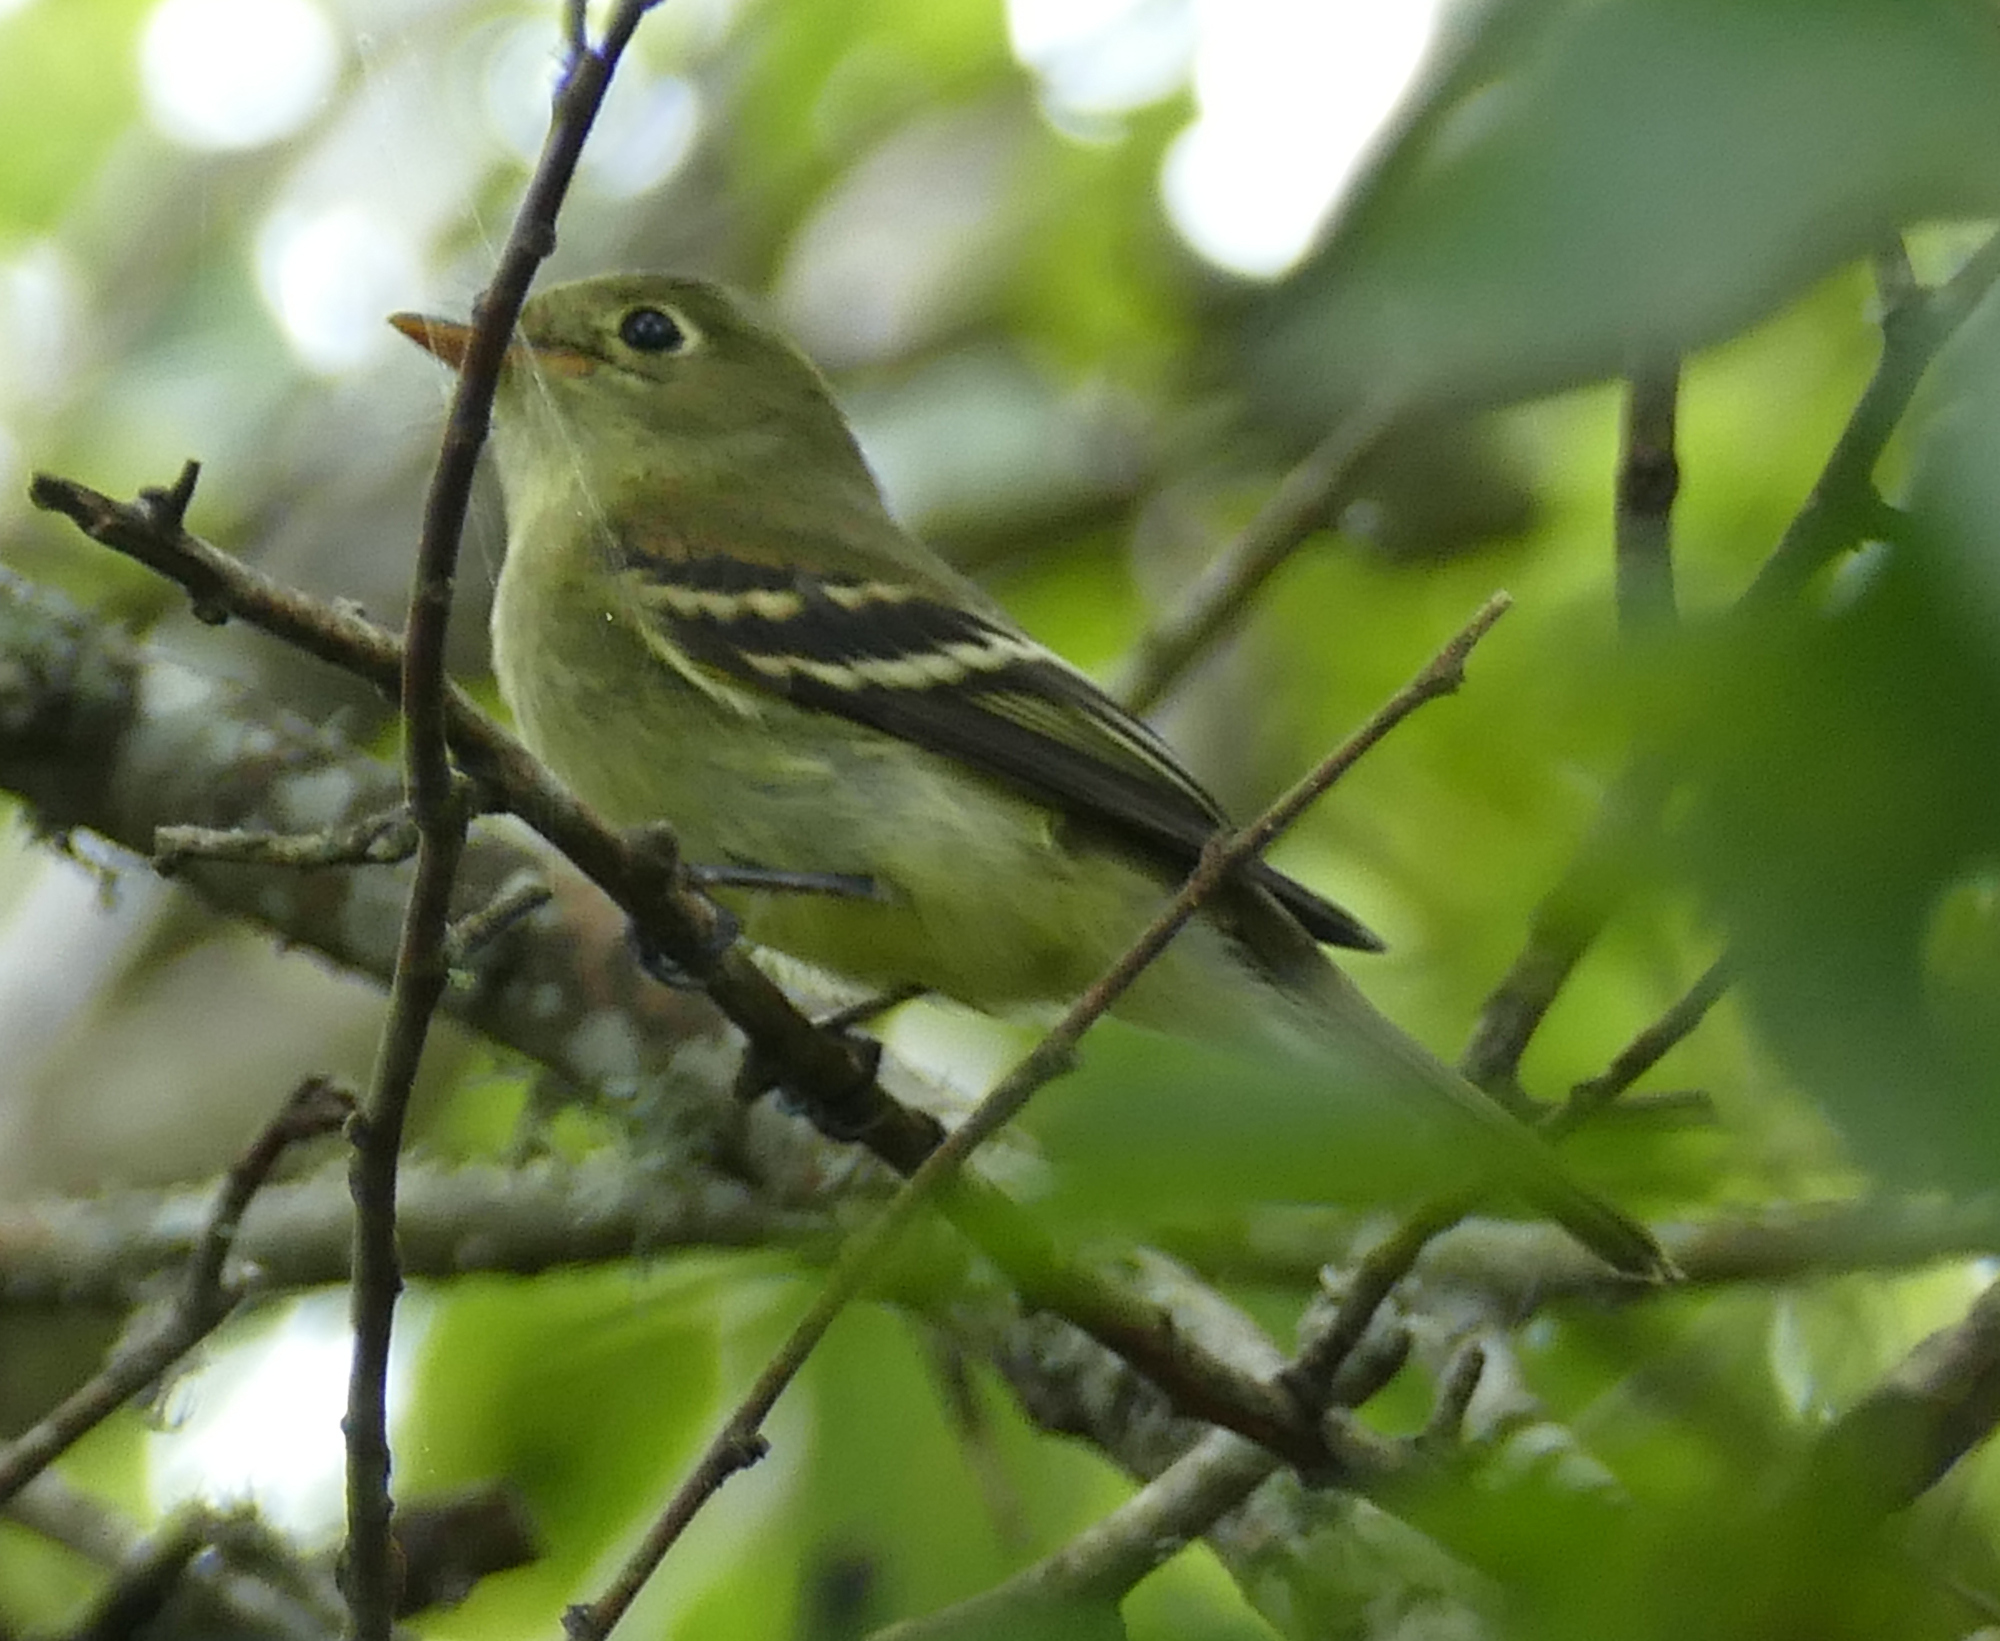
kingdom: Animalia
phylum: Chordata
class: Aves
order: Passeriformes
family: Tyrannidae
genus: Empidonax
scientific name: Empidonax flaviventris
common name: Yellow-bellied flycatcher
